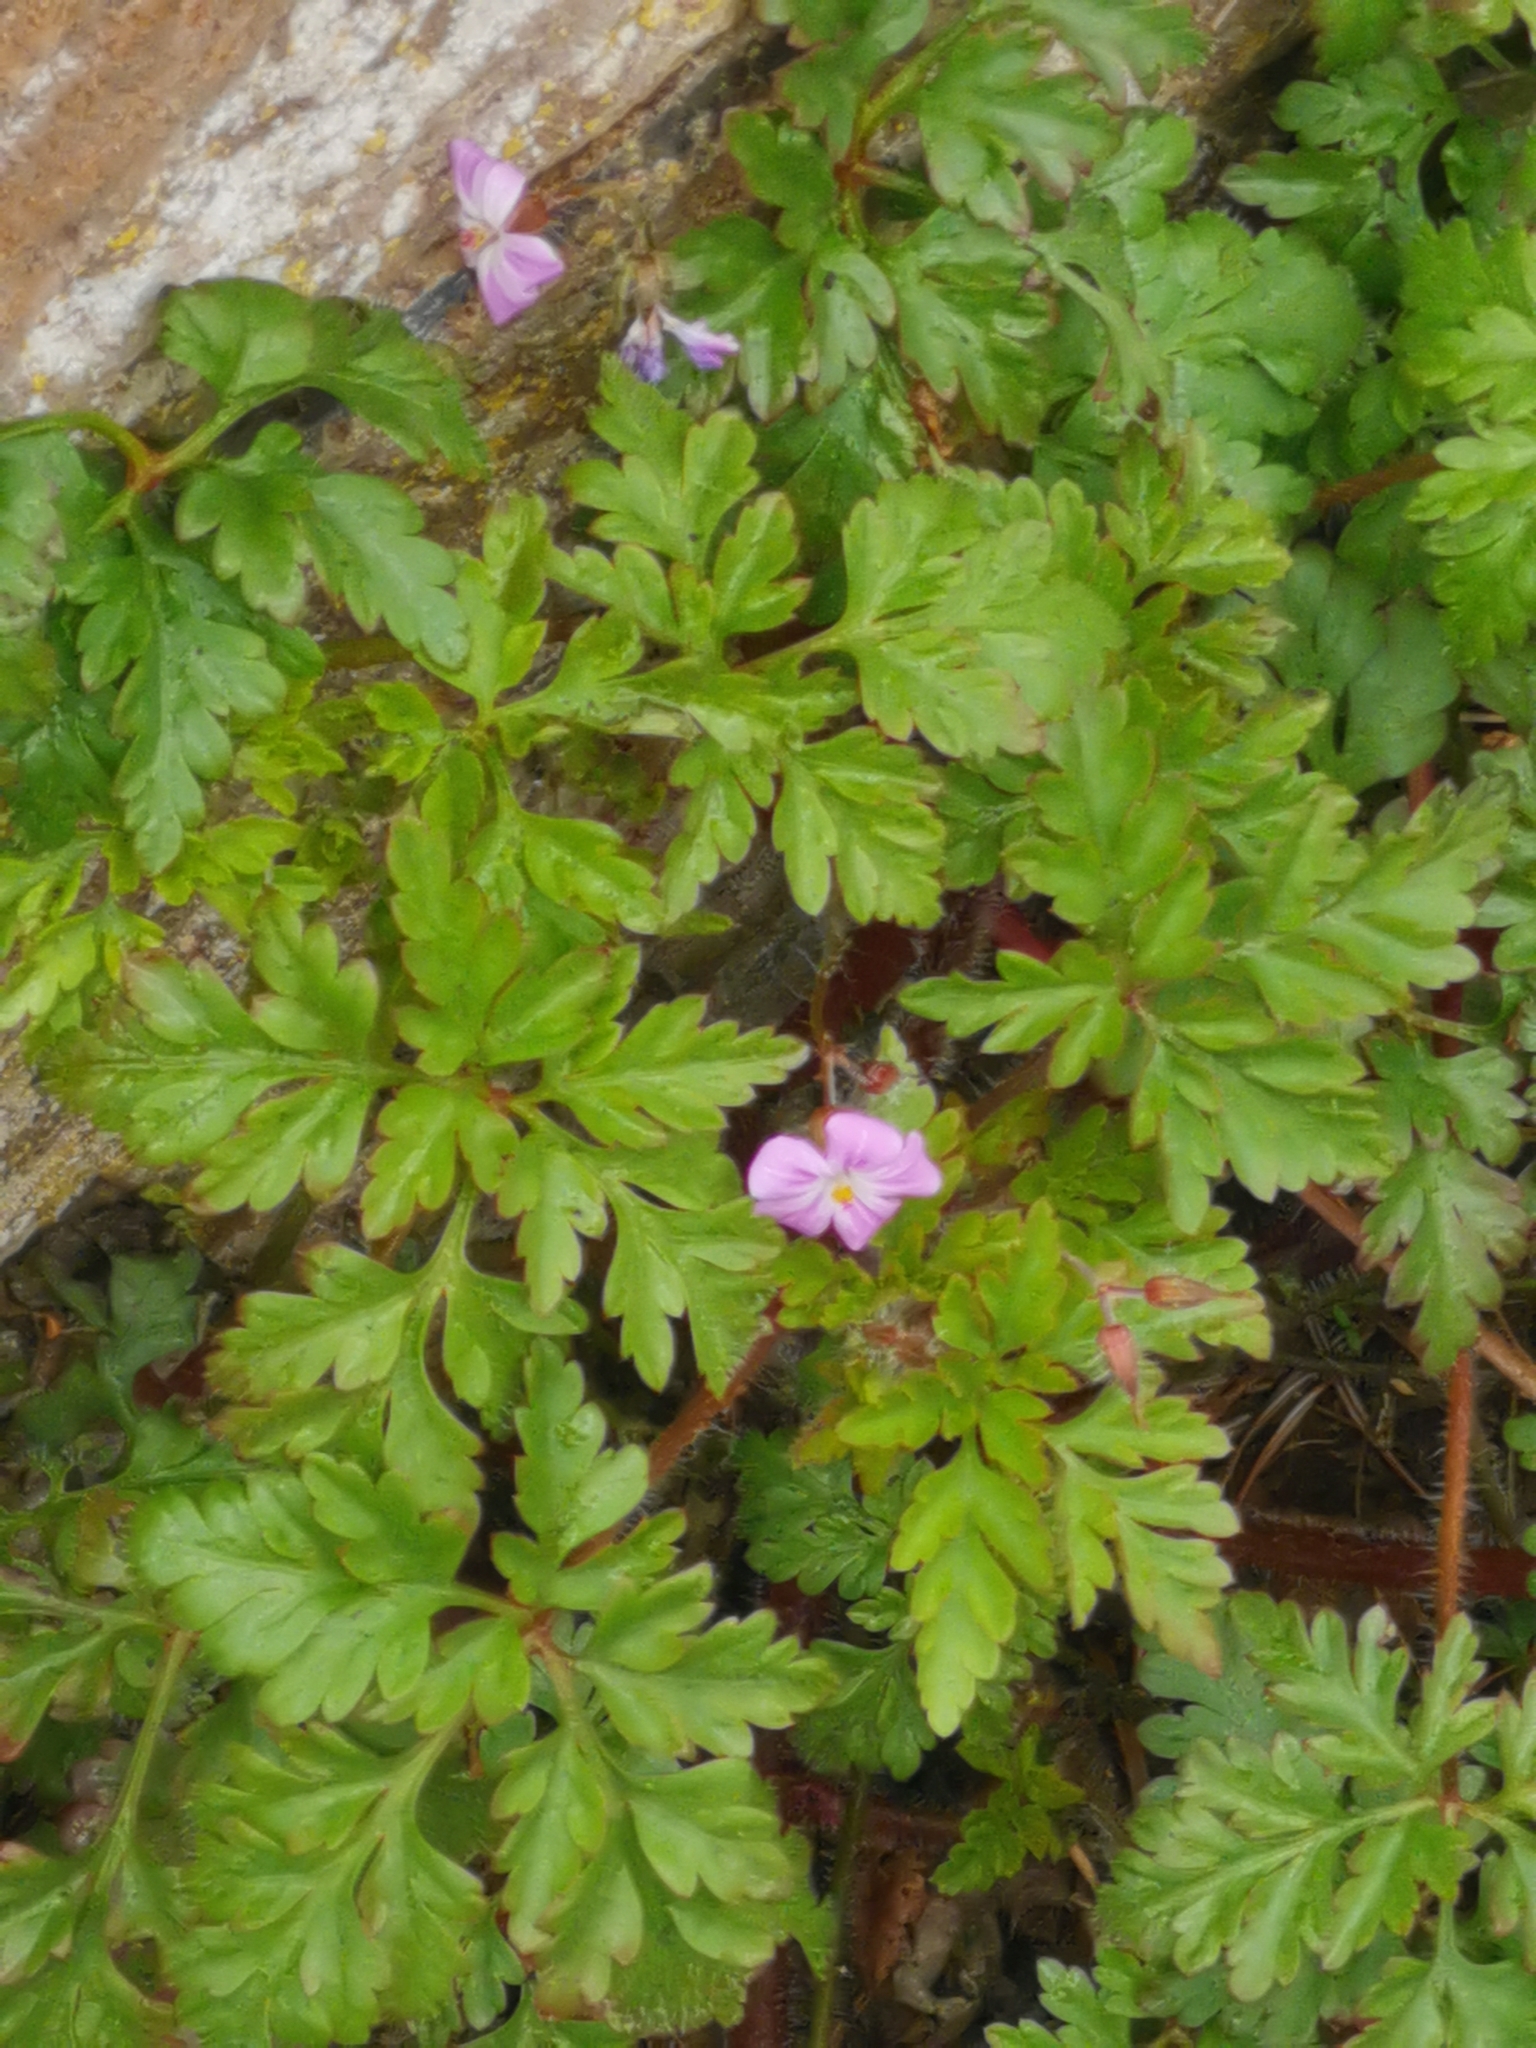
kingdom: Plantae
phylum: Tracheophyta
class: Magnoliopsida
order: Geraniales
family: Geraniaceae
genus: Geranium
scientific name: Geranium robertianum
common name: Herb-robert
